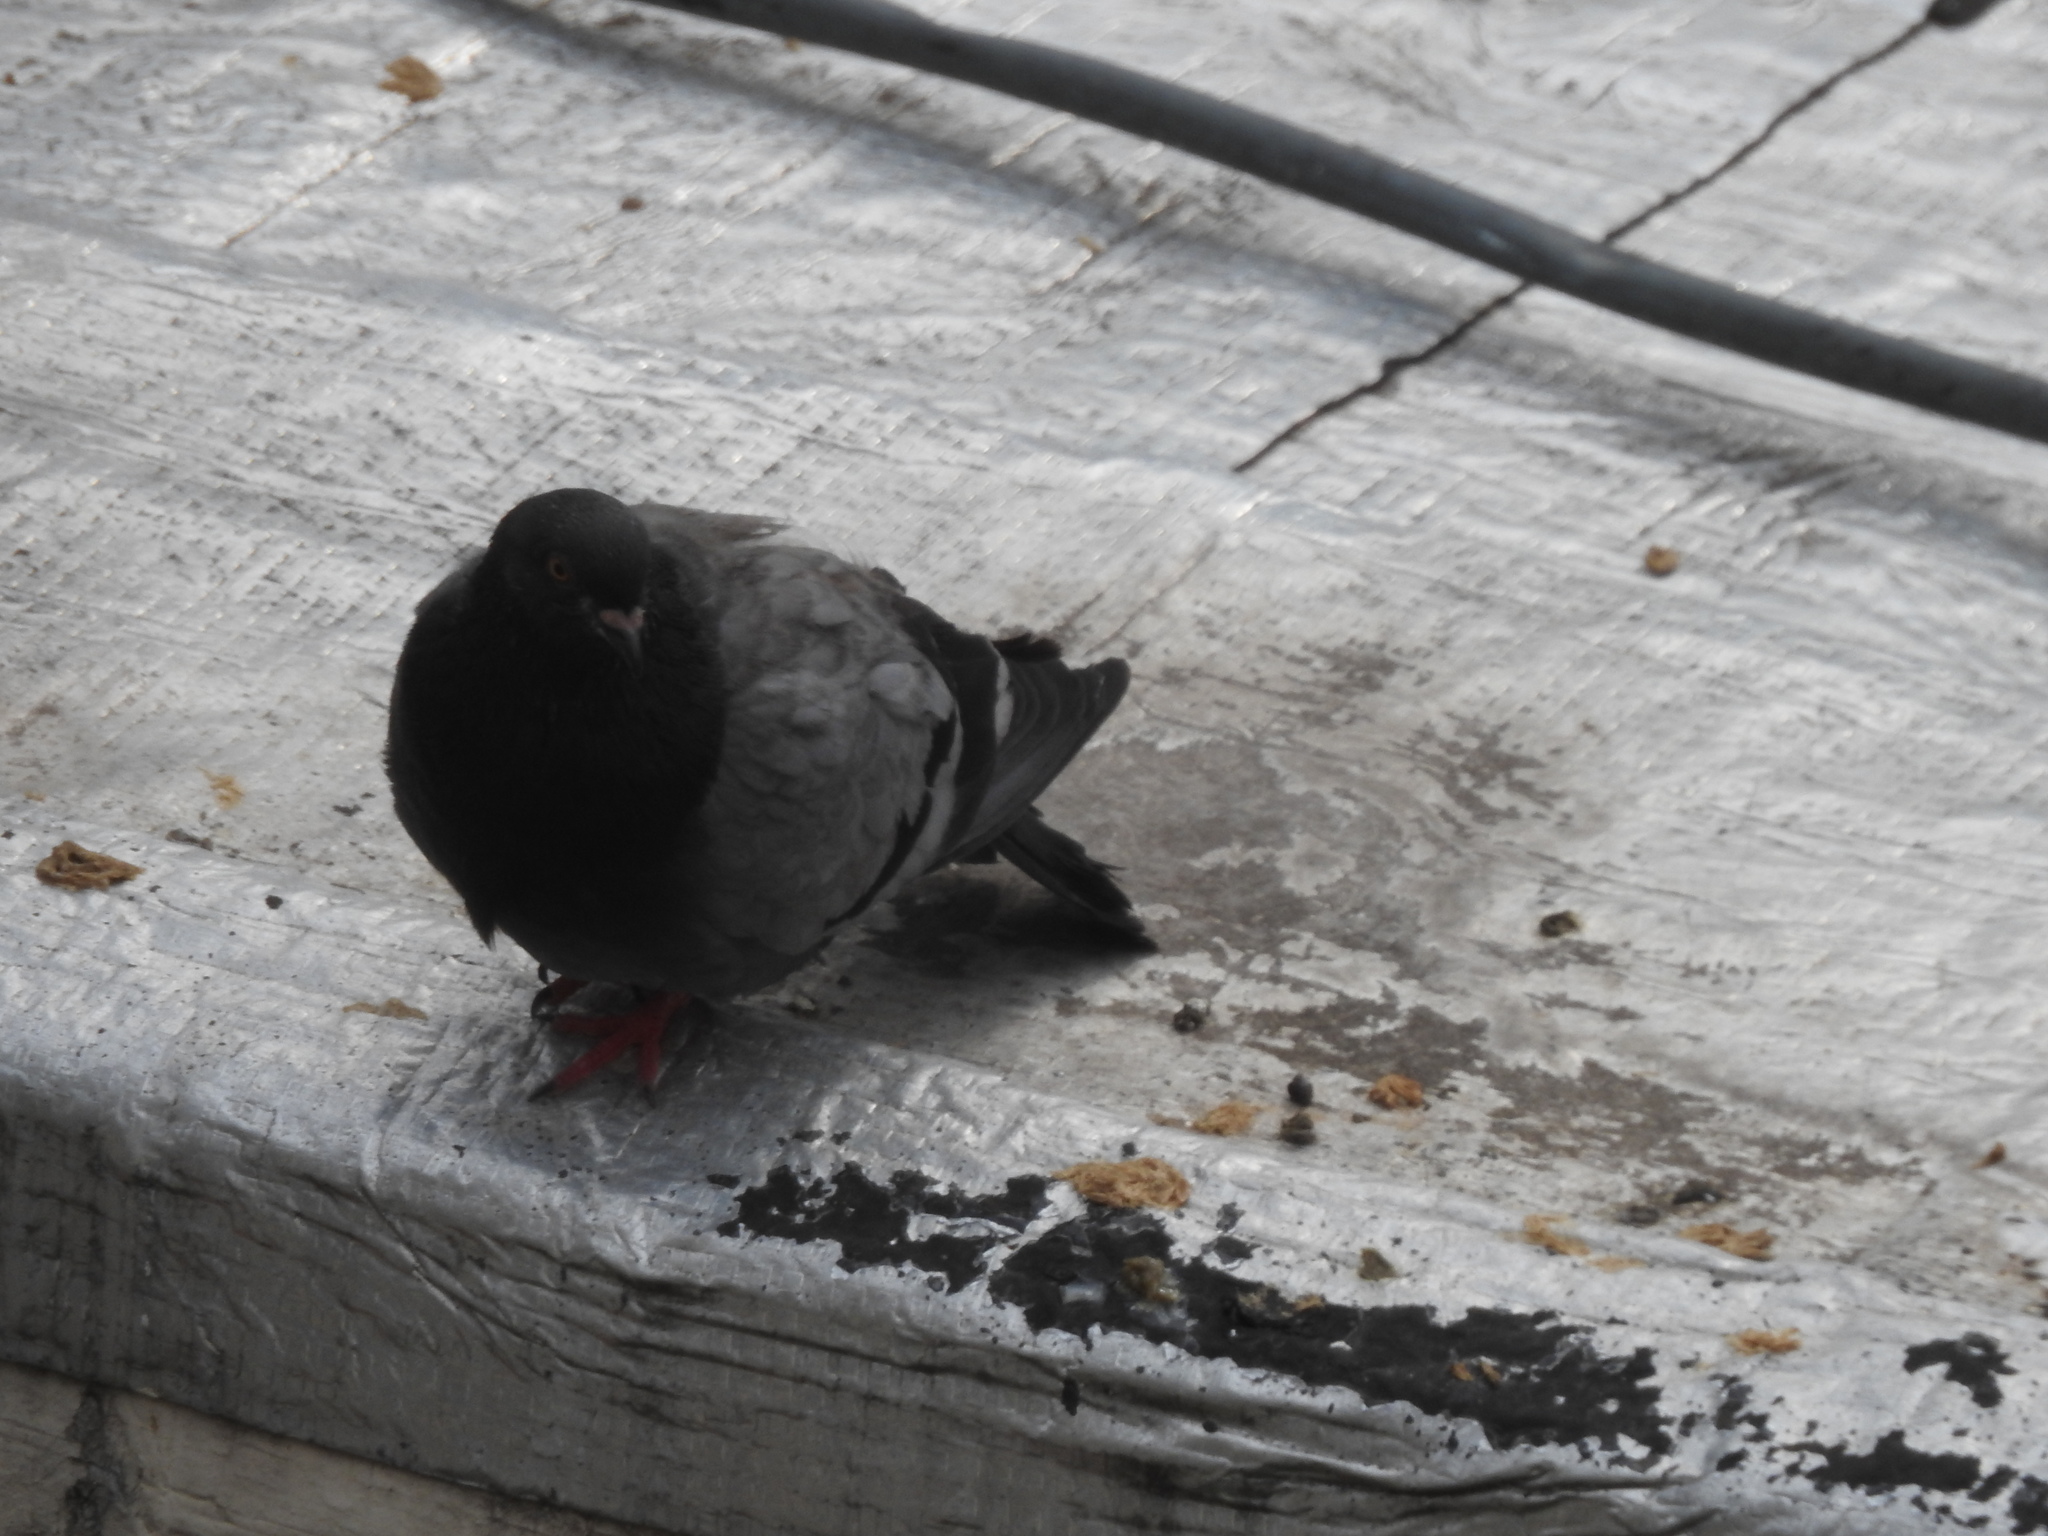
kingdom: Animalia
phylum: Chordata
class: Aves
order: Columbiformes
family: Columbidae
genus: Columba
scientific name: Columba livia
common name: Rock pigeon
